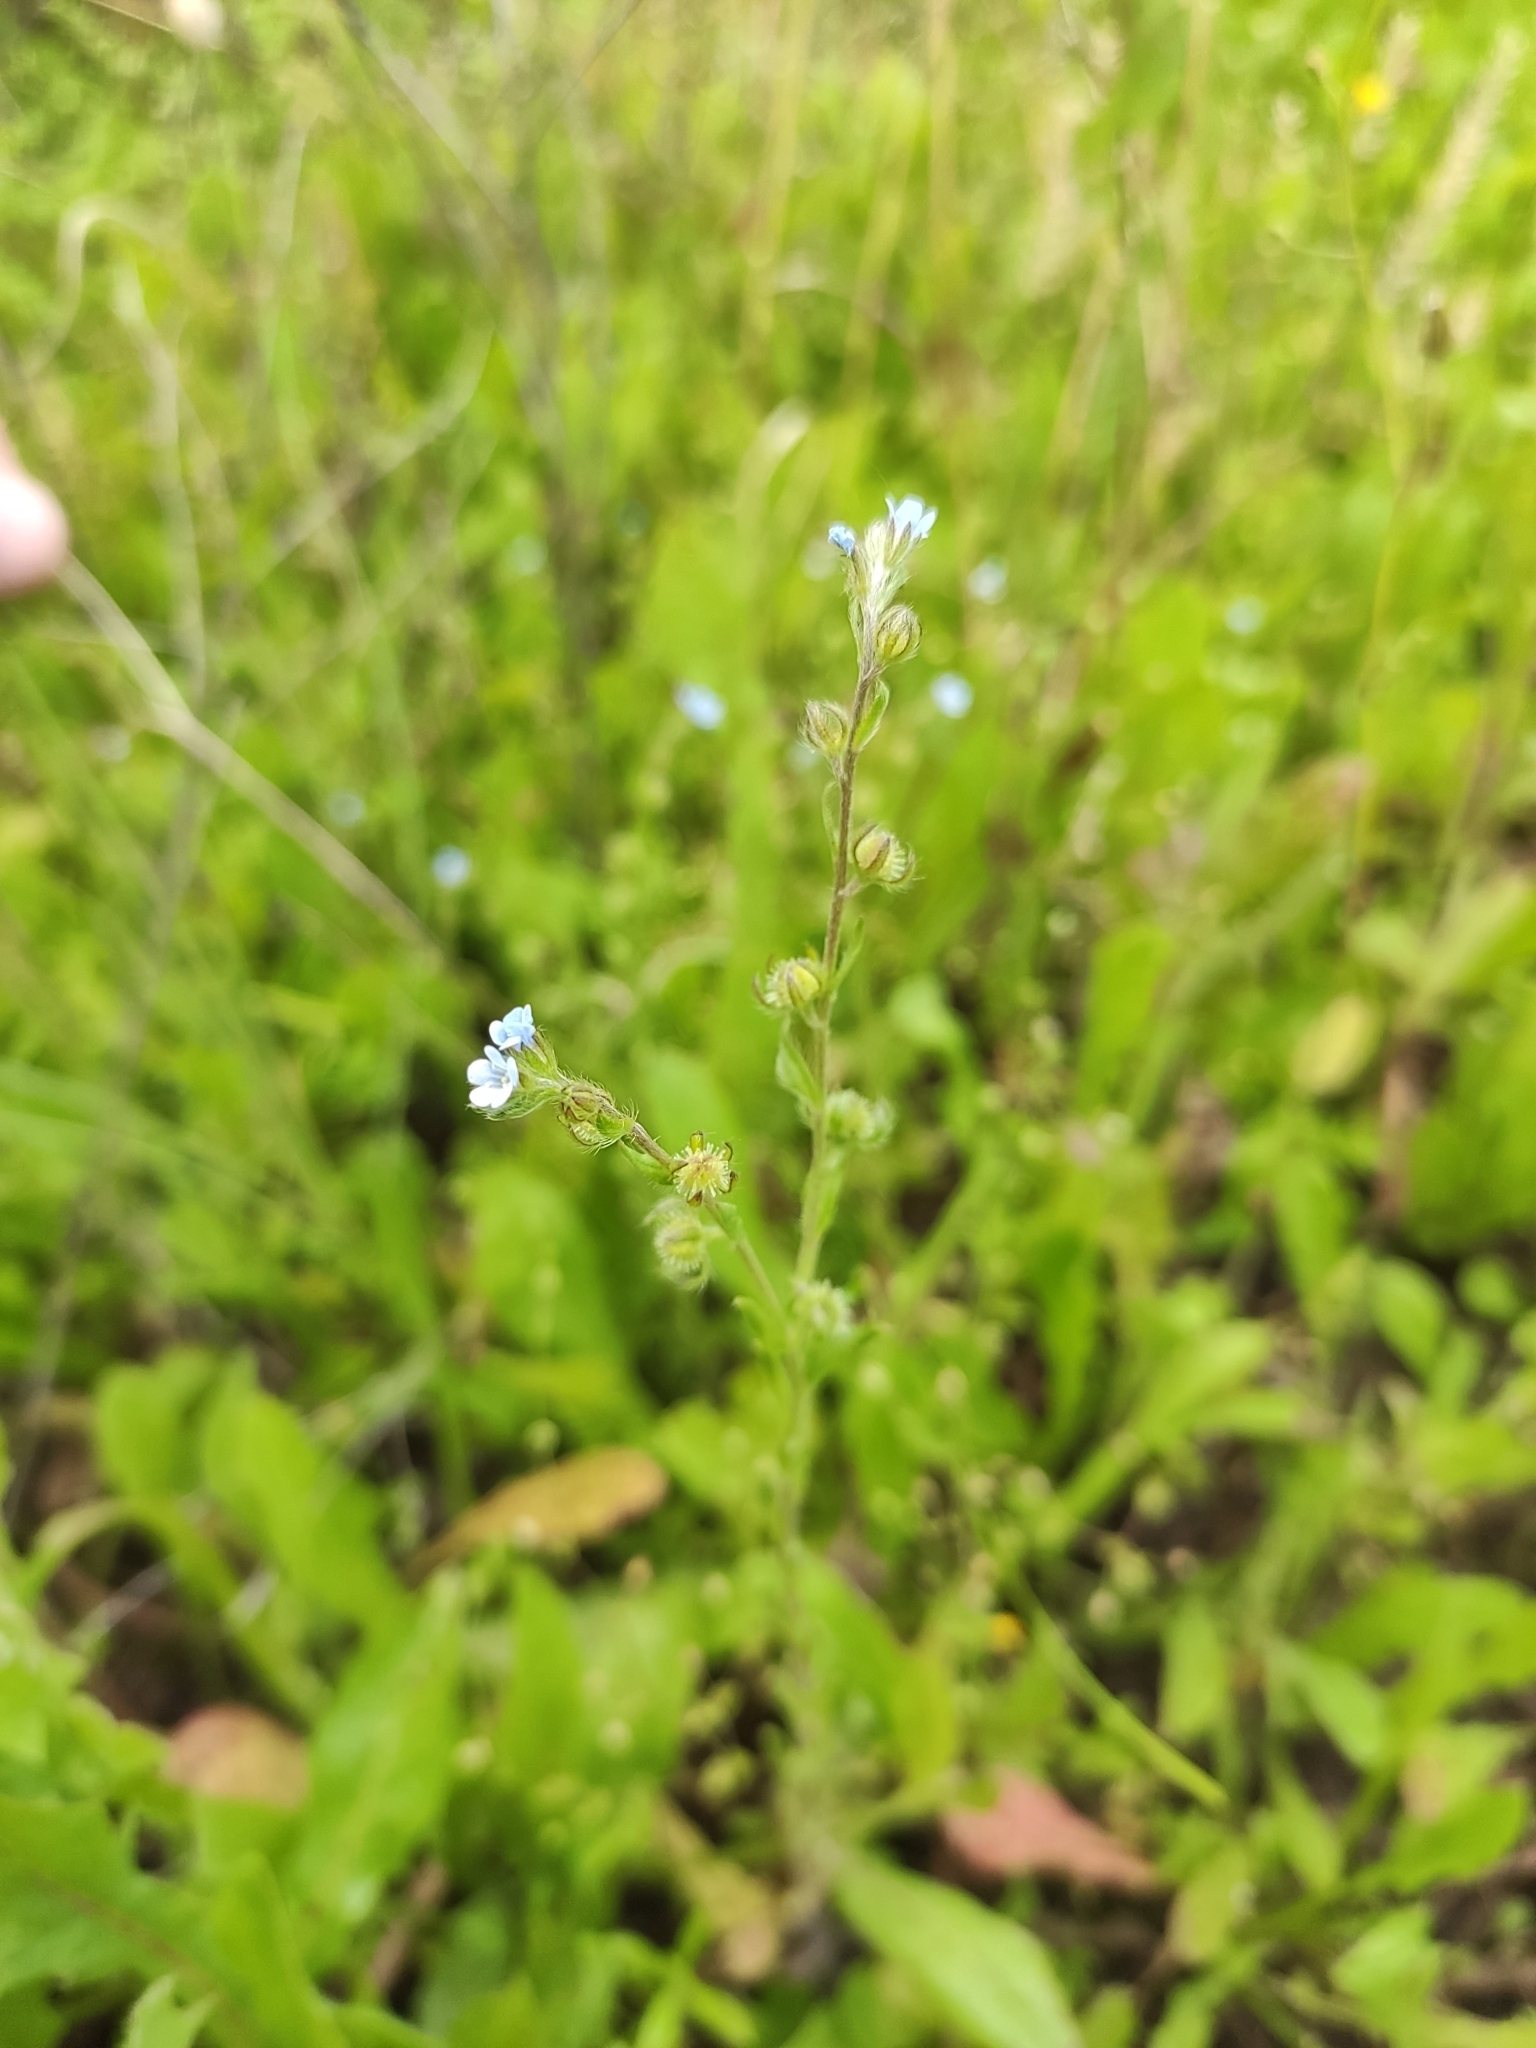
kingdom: Plantae
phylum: Tracheophyta
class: Magnoliopsida
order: Boraginales
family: Boraginaceae
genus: Lappula
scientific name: Lappula squarrosa
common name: European stickseed
